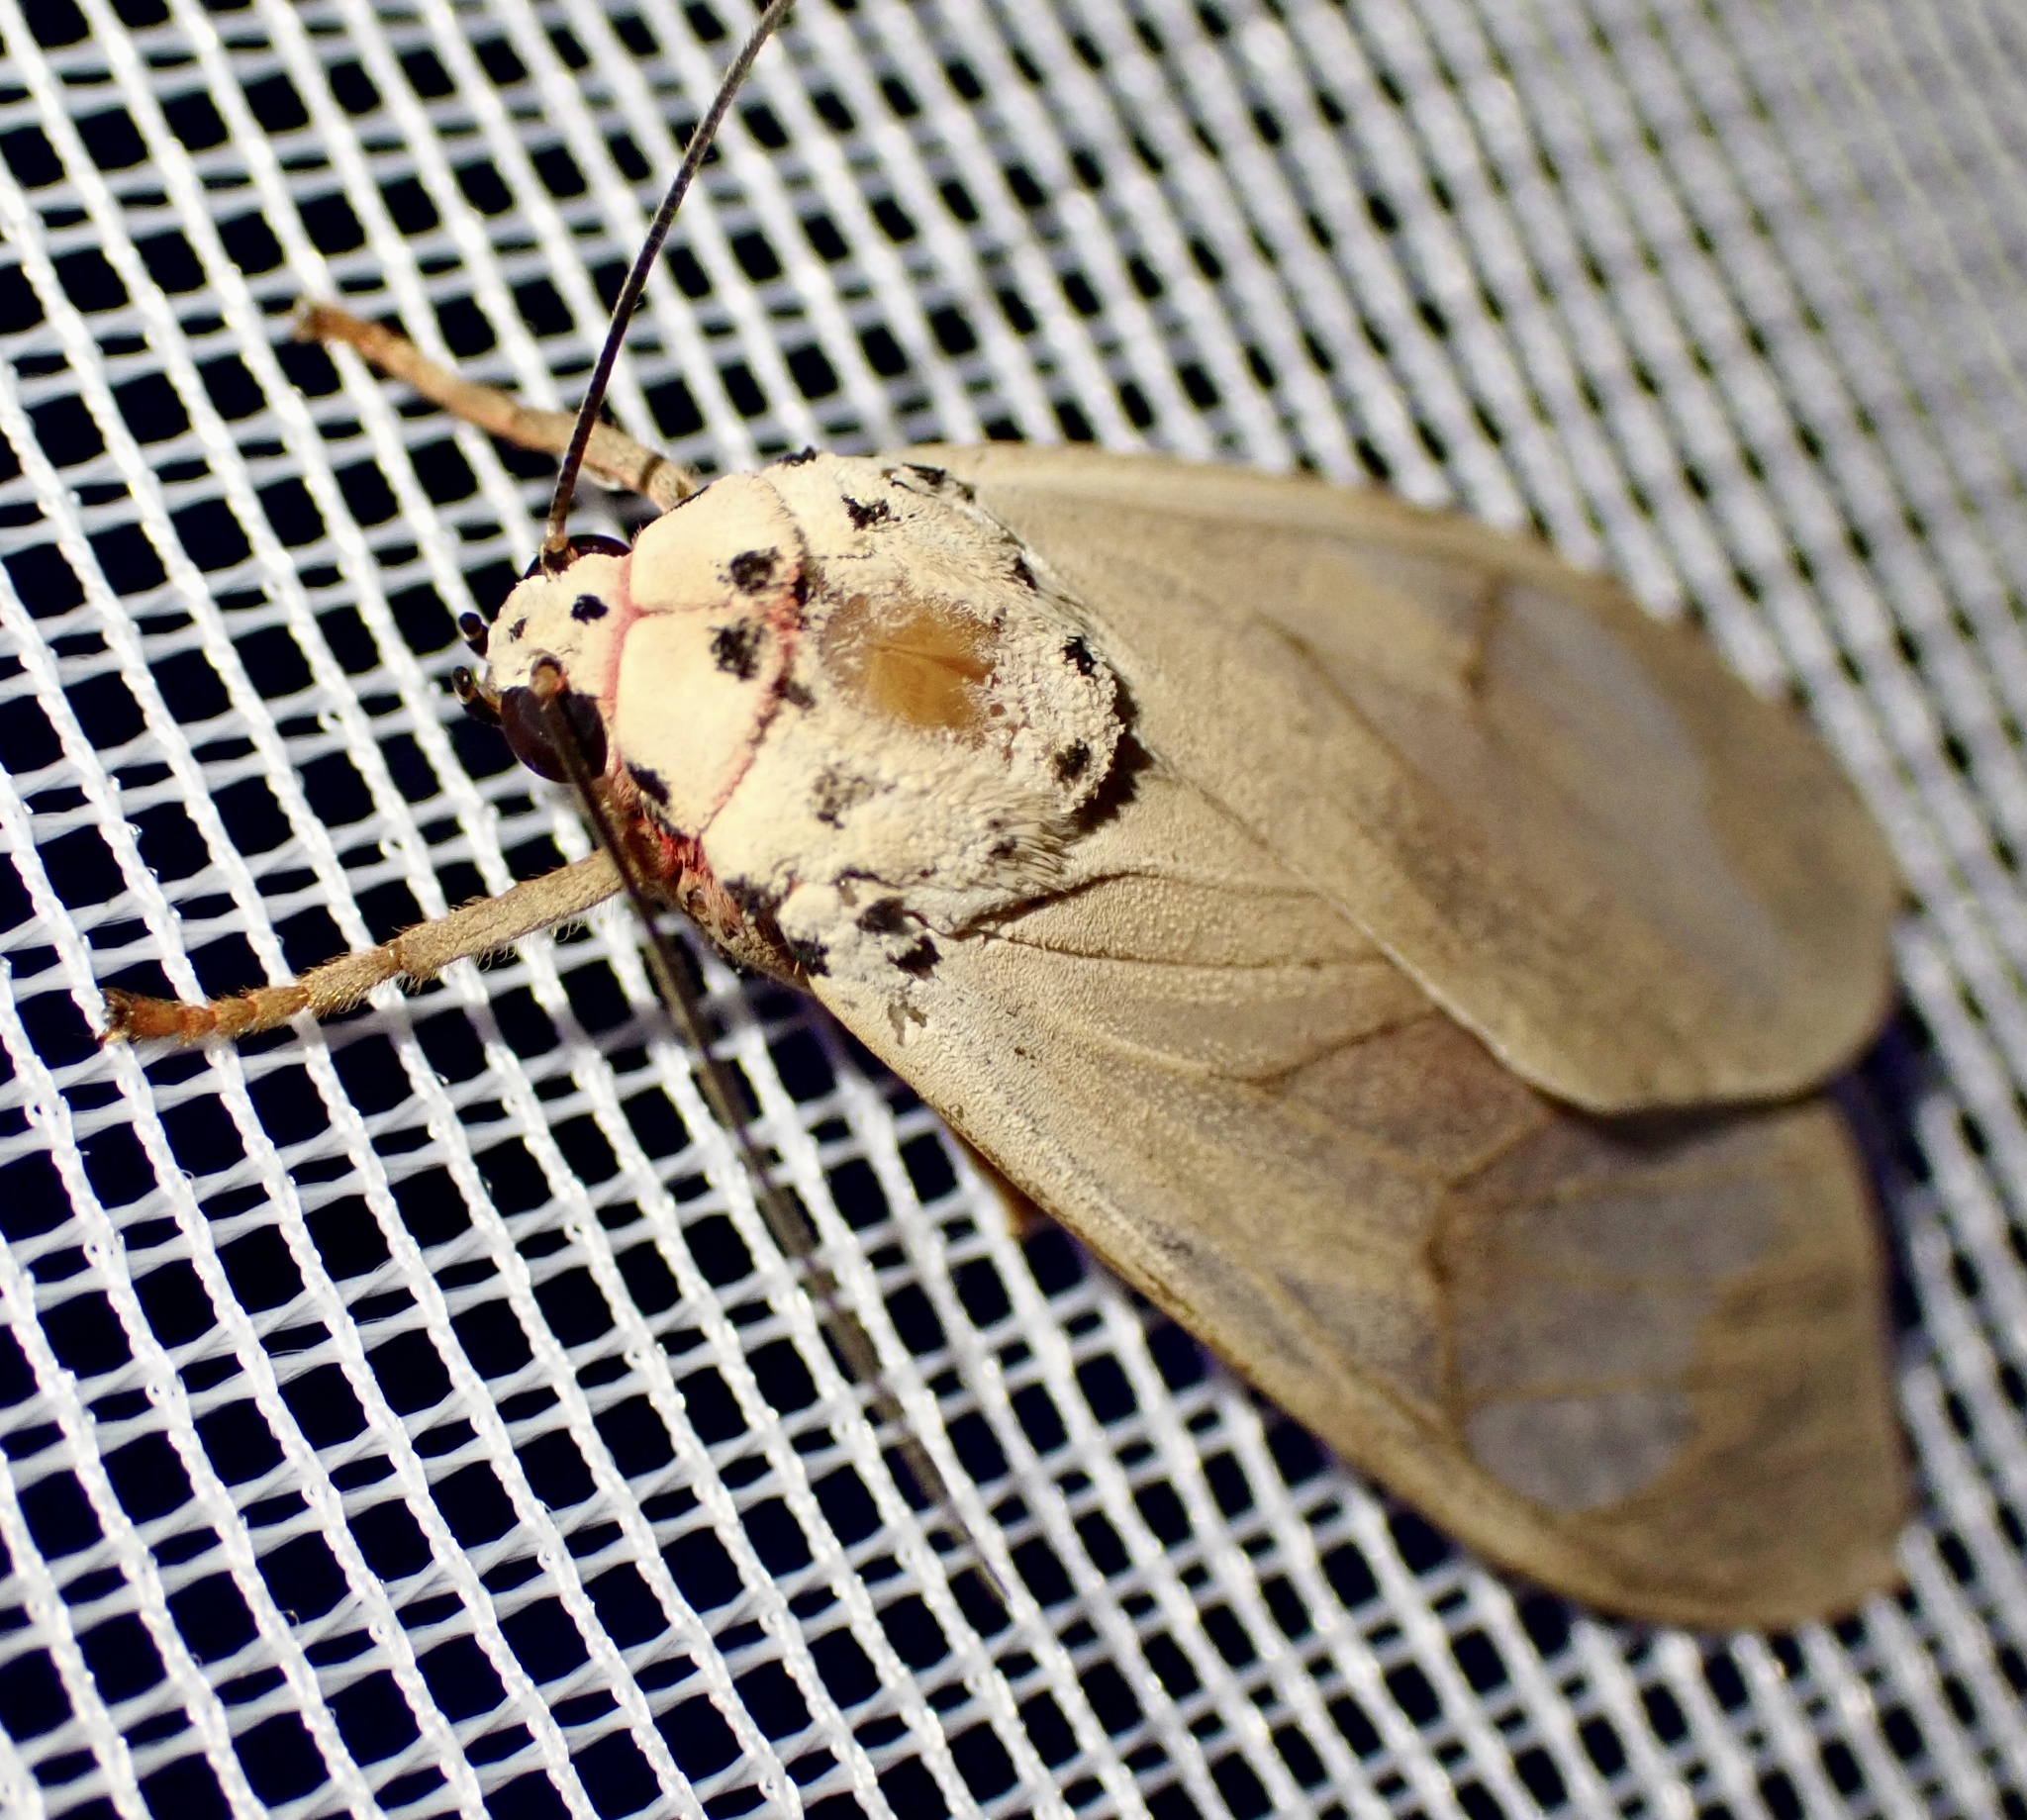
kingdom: Animalia
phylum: Arthropoda
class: Insecta
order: Lepidoptera
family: Erebidae
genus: Amerila
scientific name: Amerila affinis
